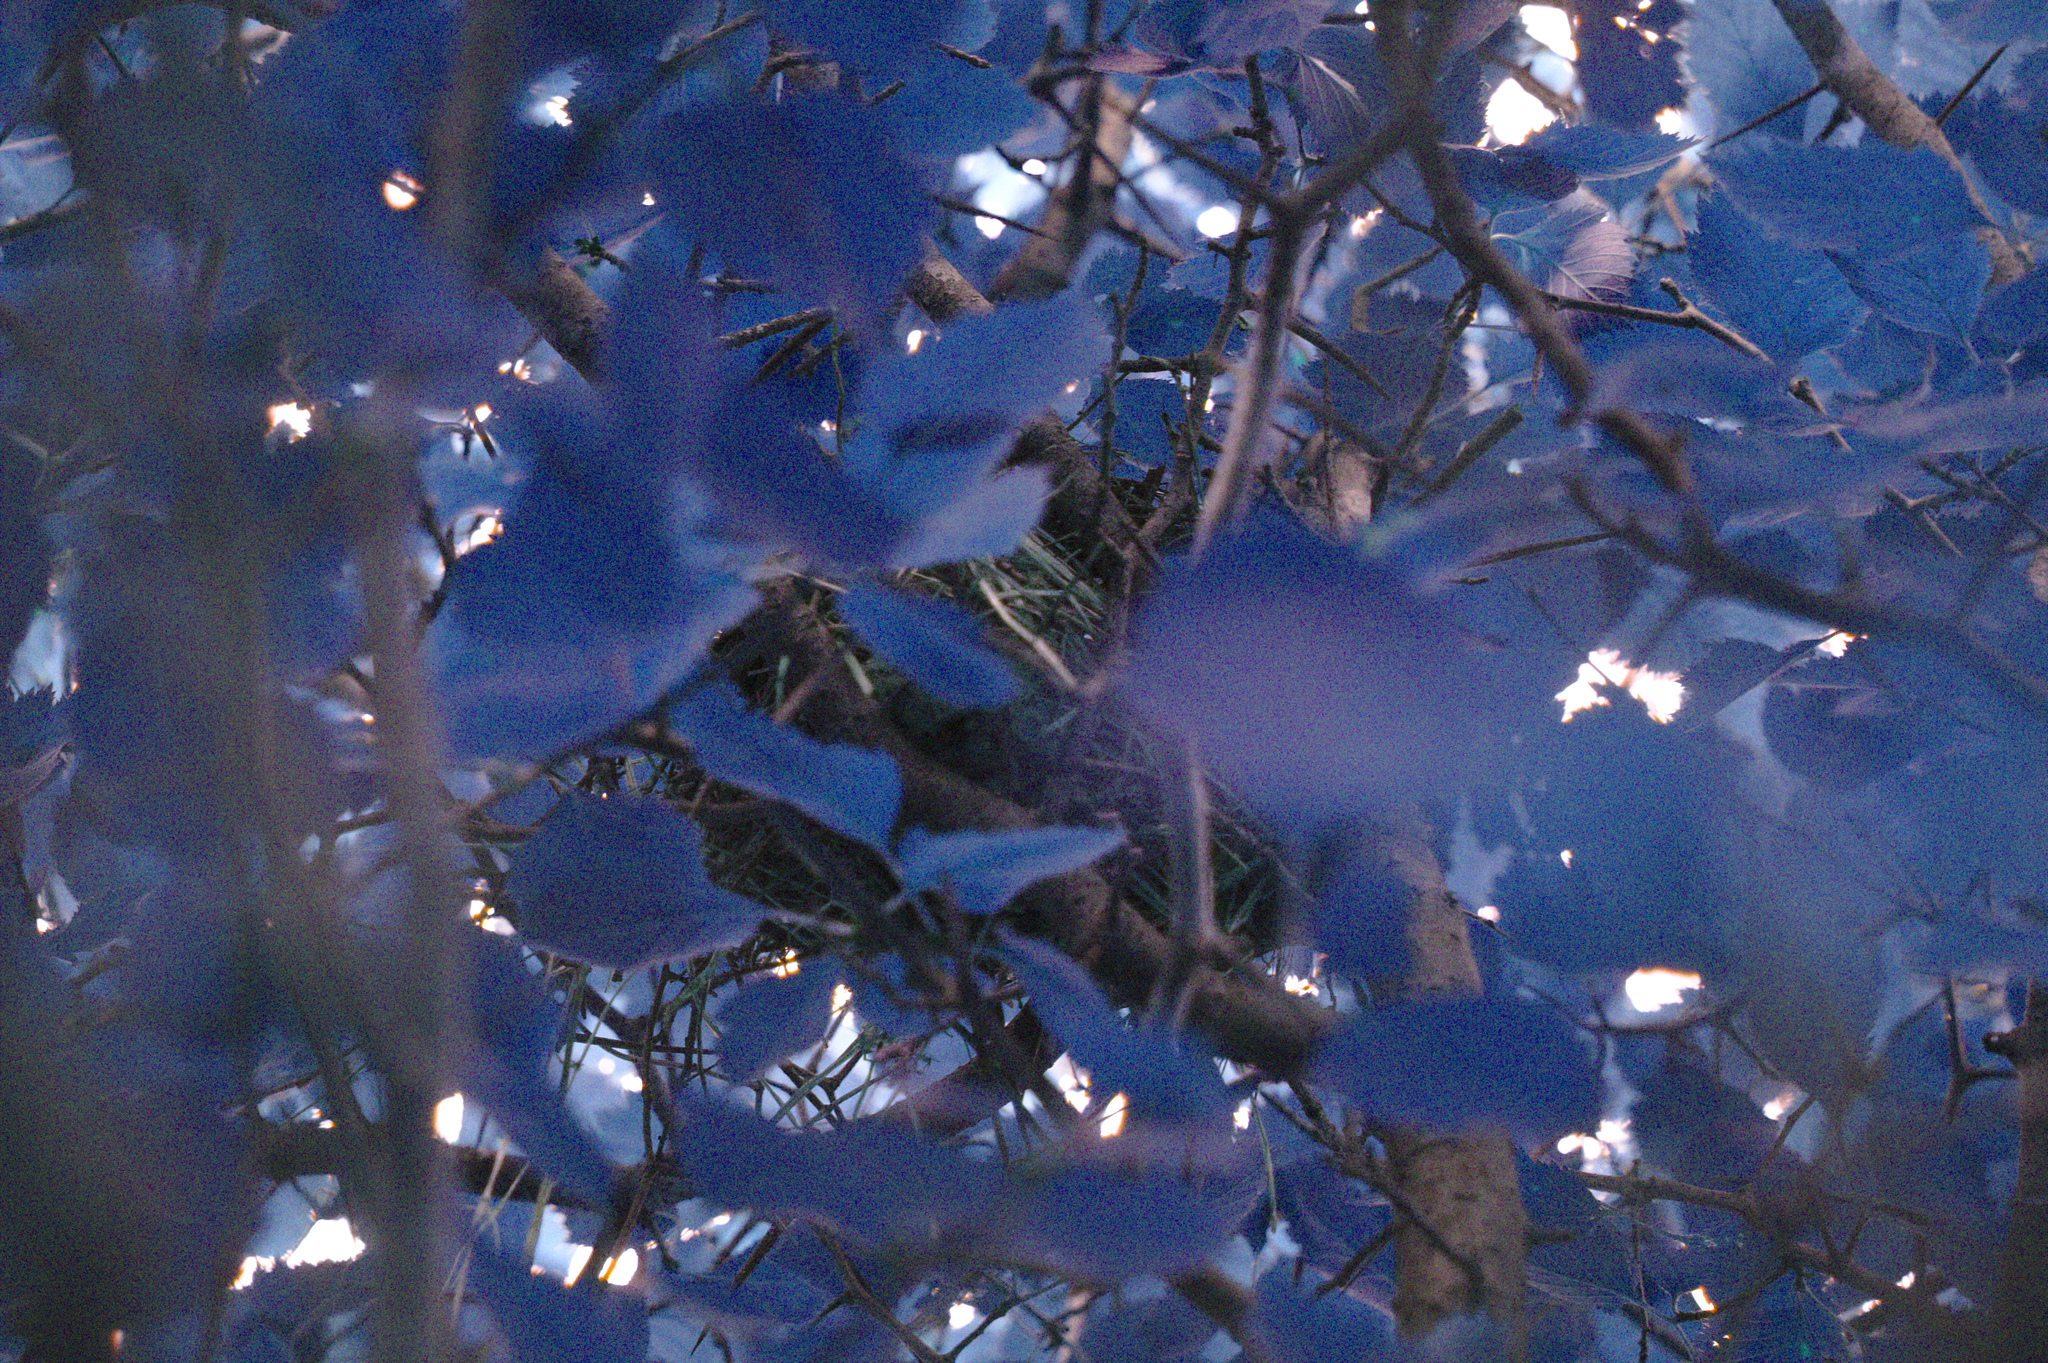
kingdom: Plantae
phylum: Tracheophyta
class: Magnoliopsida
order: Rosales
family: Rosaceae
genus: Crataegus
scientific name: Crataegus
